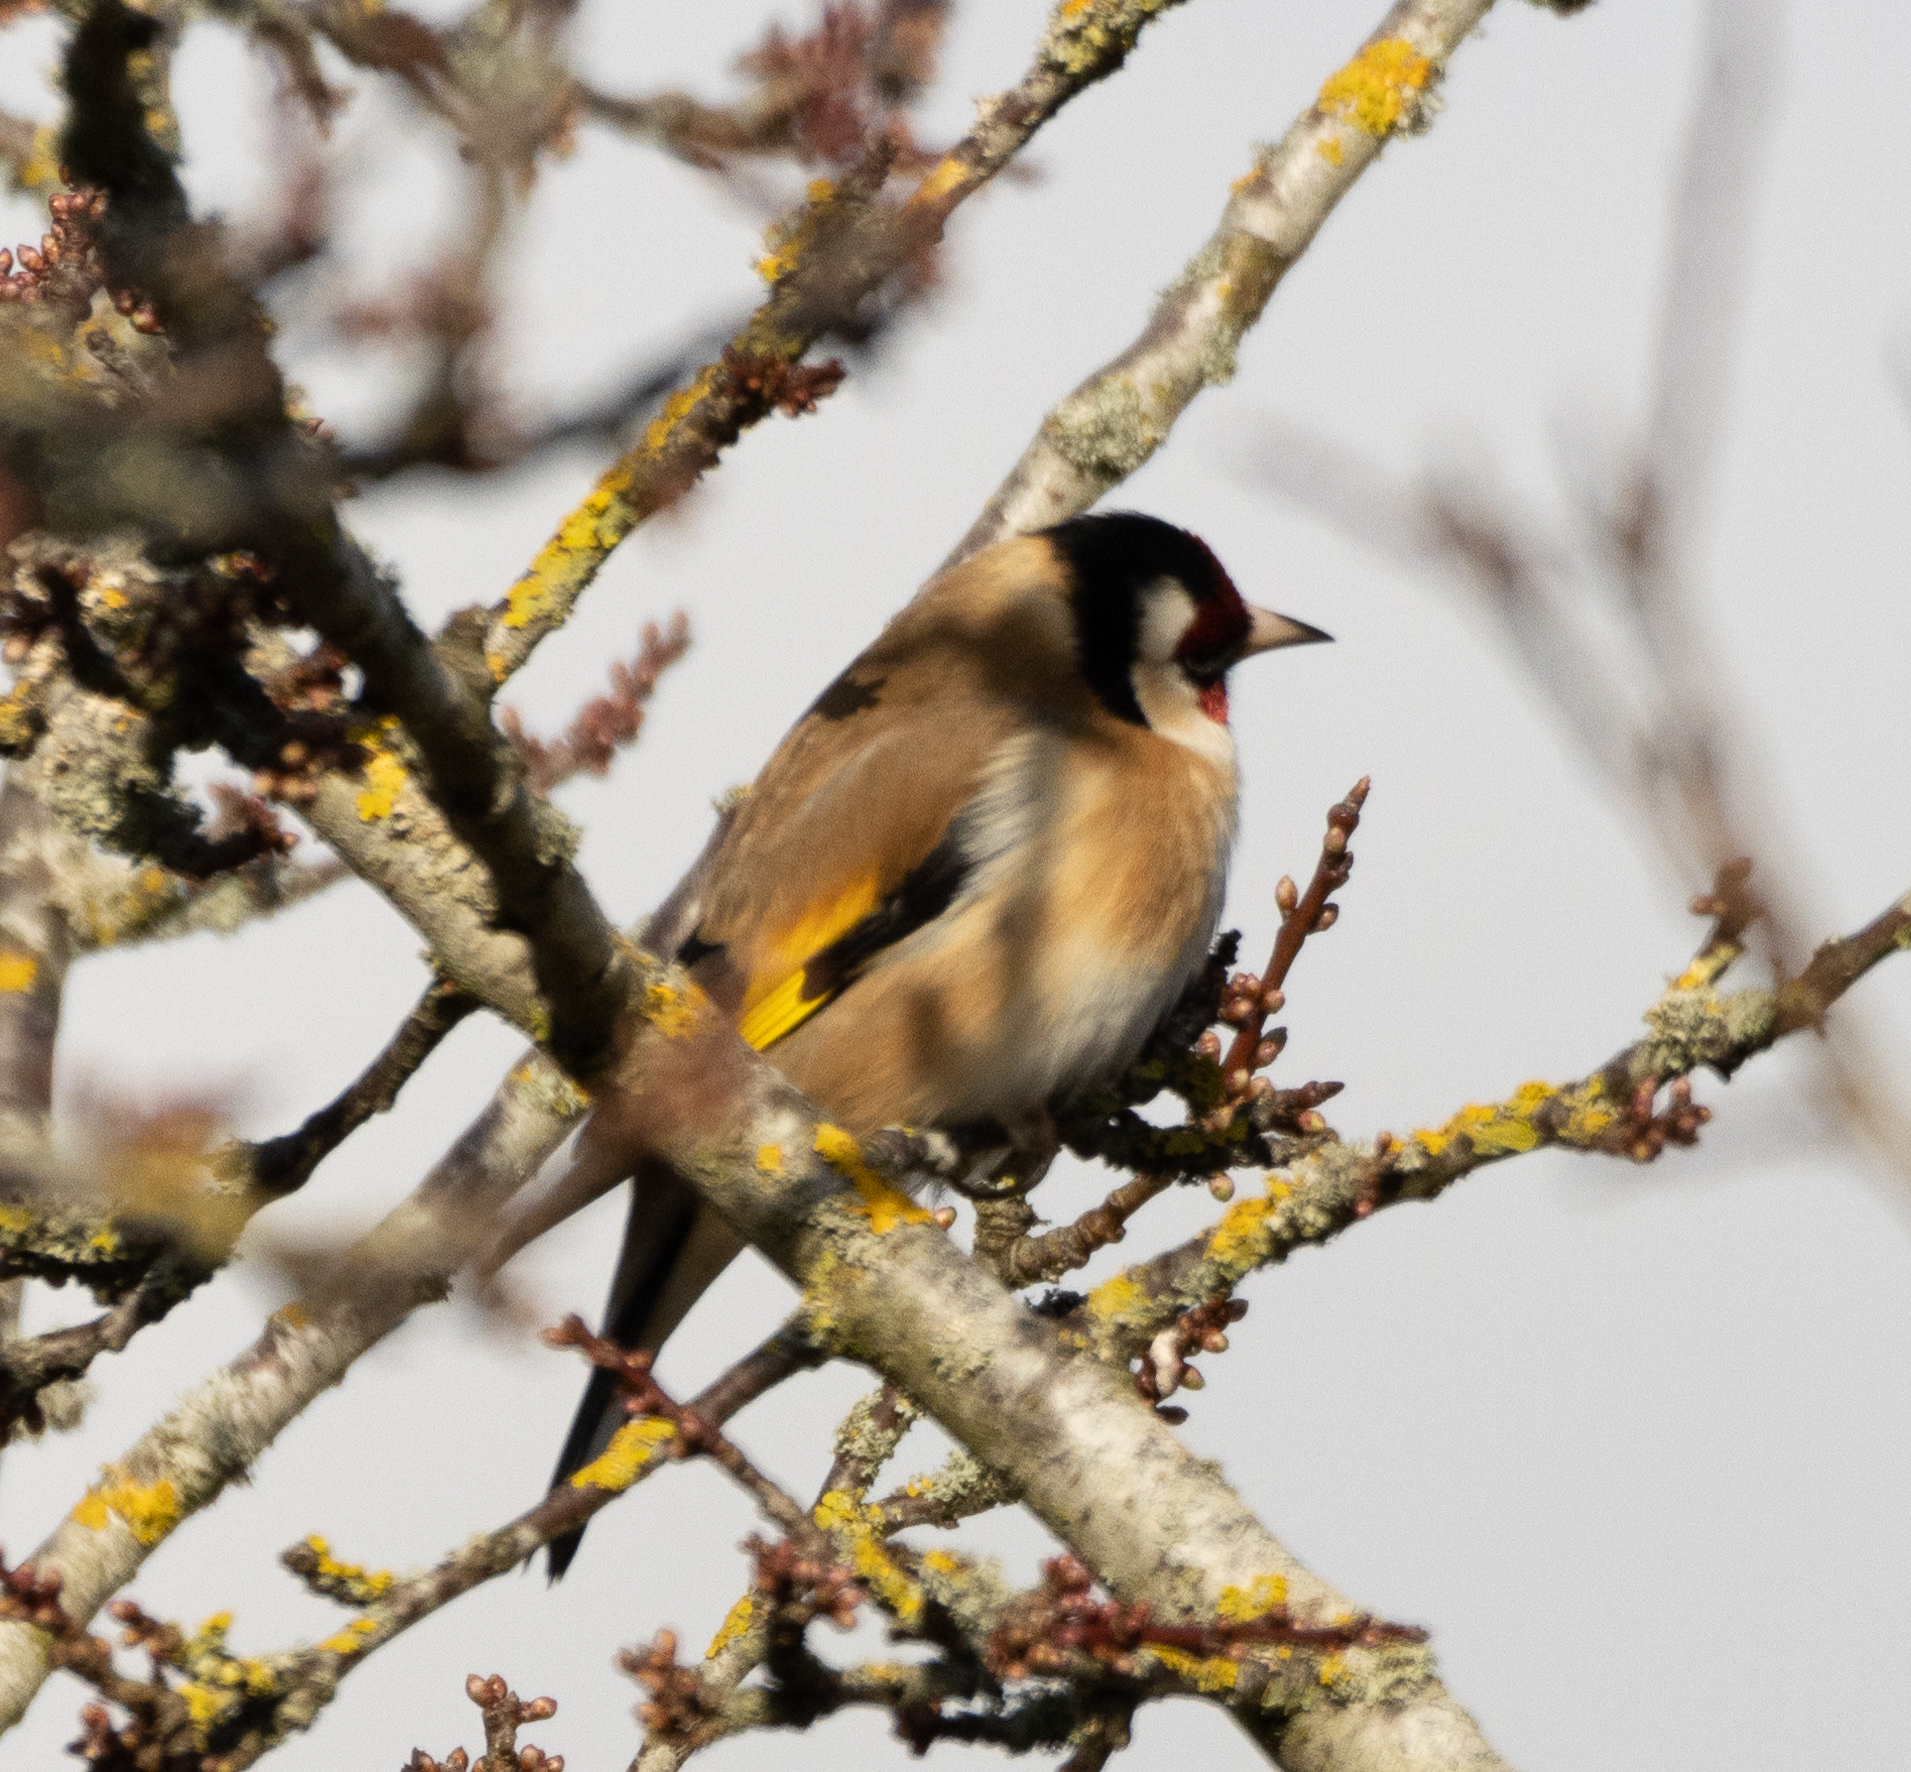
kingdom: Animalia
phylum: Chordata
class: Aves
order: Passeriformes
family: Fringillidae
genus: Carduelis
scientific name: Carduelis carduelis
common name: European goldfinch
